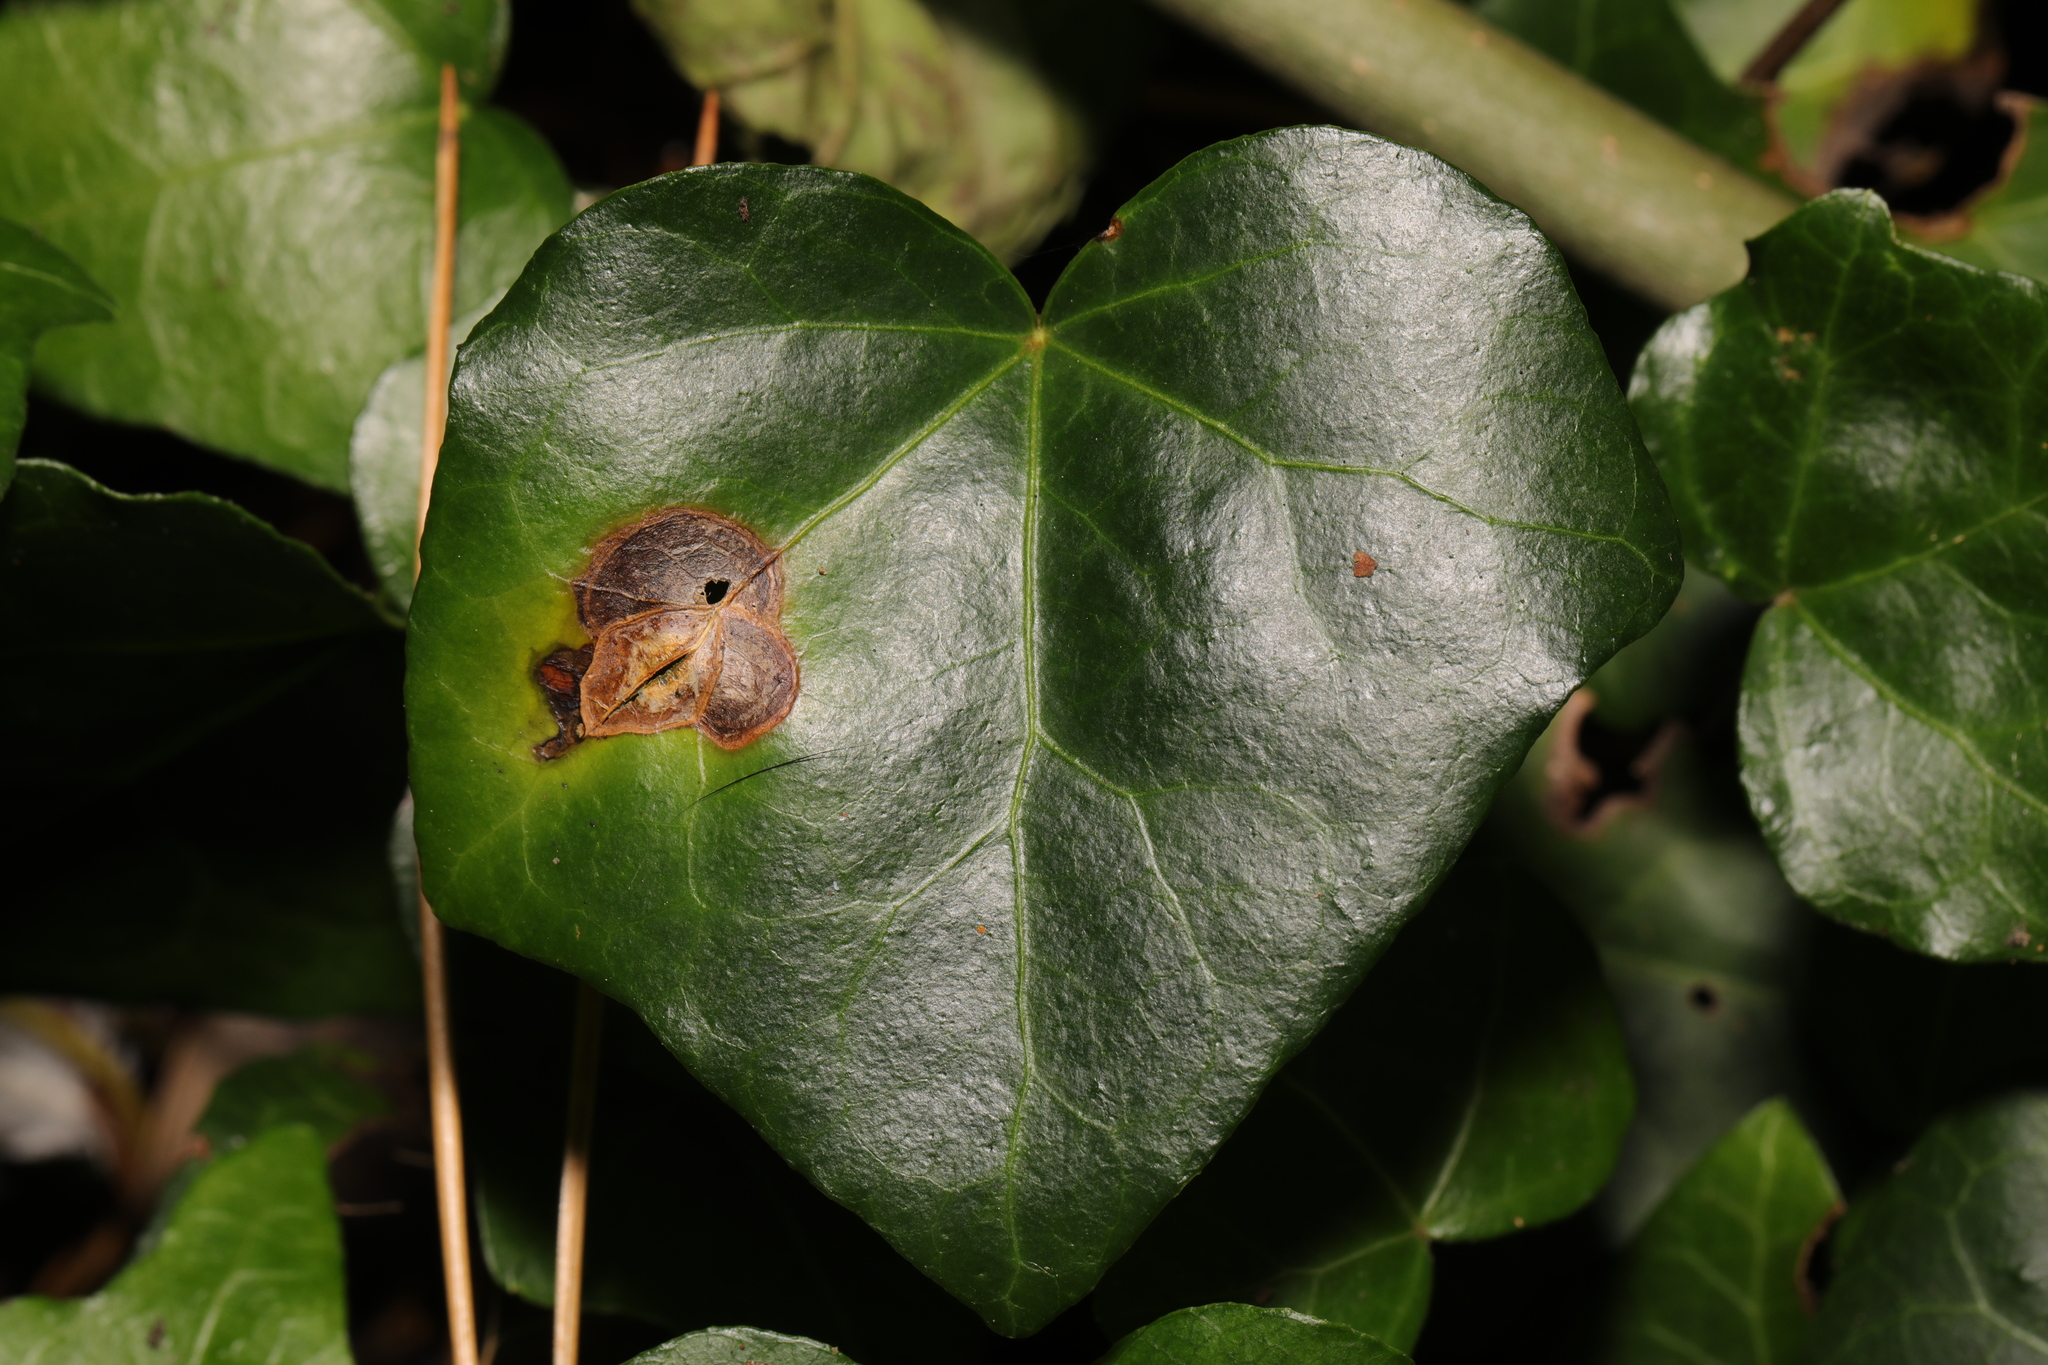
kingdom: Plantae
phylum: Tracheophyta
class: Magnoliopsida
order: Apiales
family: Araliaceae
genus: Hedera
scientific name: Hedera helix
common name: Ivy
